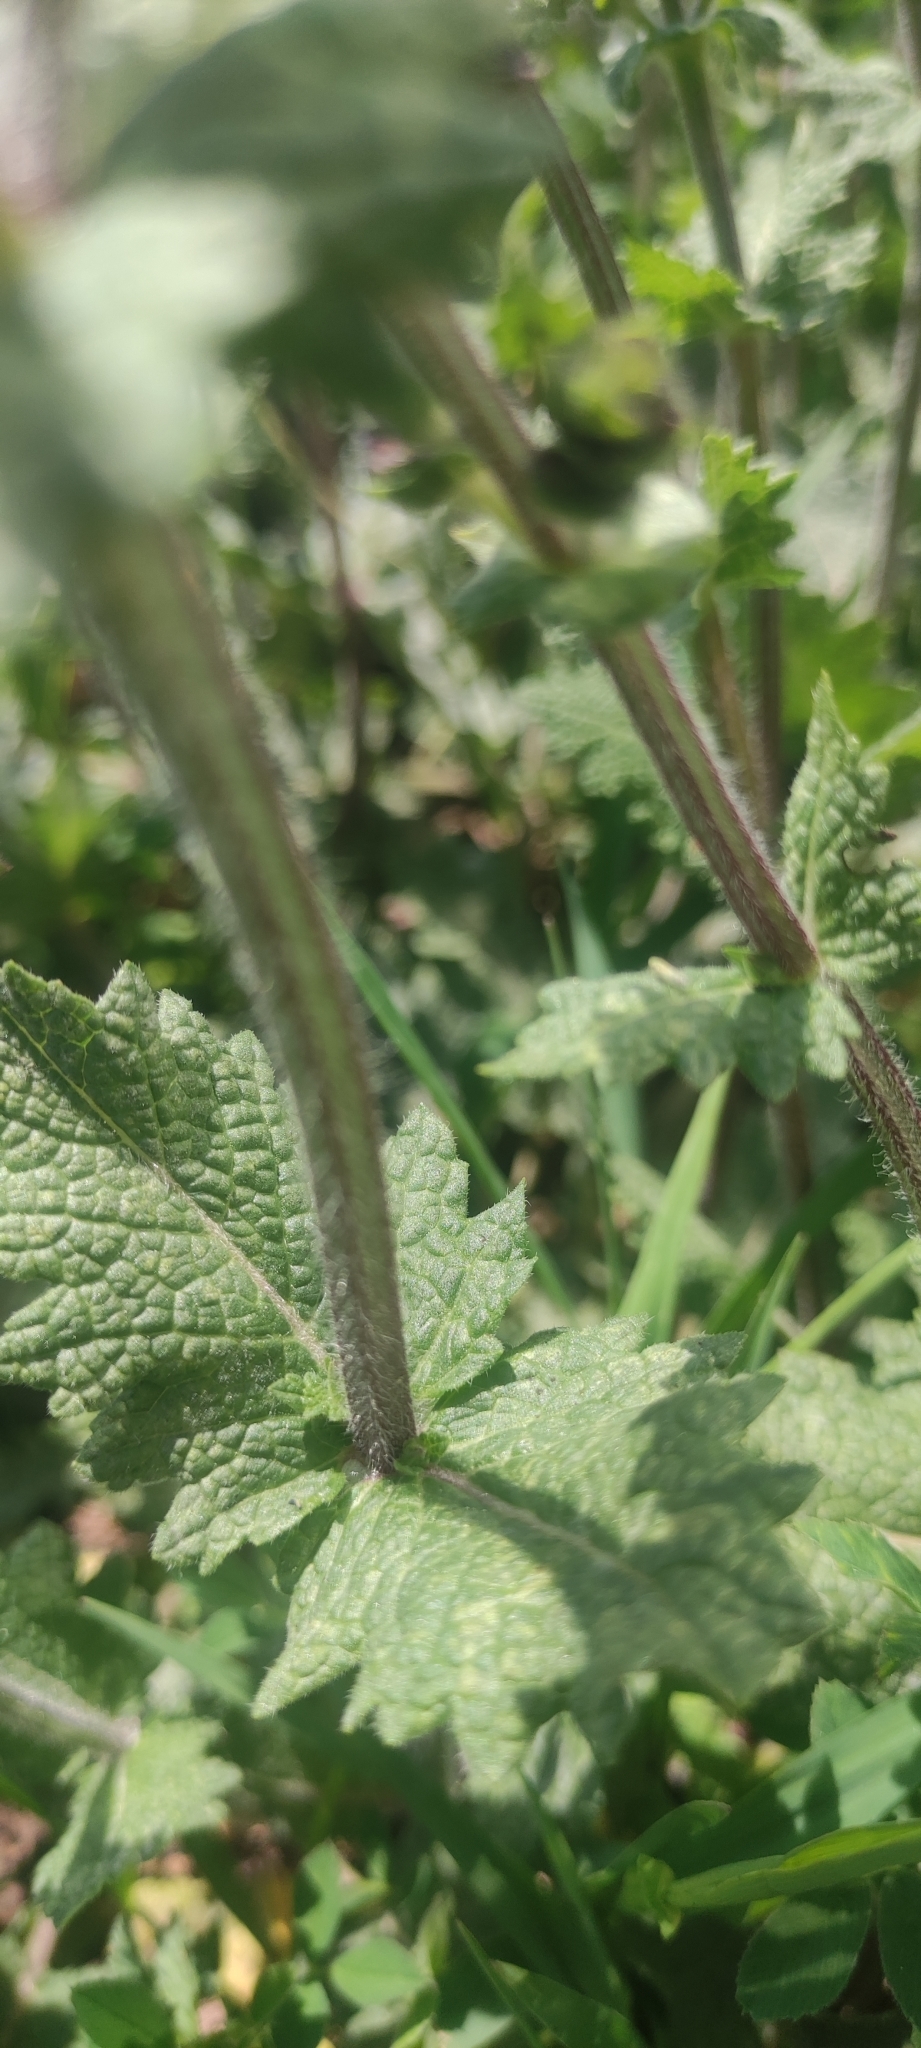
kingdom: Plantae
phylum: Tracheophyta
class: Magnoliopsida
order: Lamiales
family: Lamiaceae
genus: Salvia
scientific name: Salvia verbenaca
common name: Wild clary
